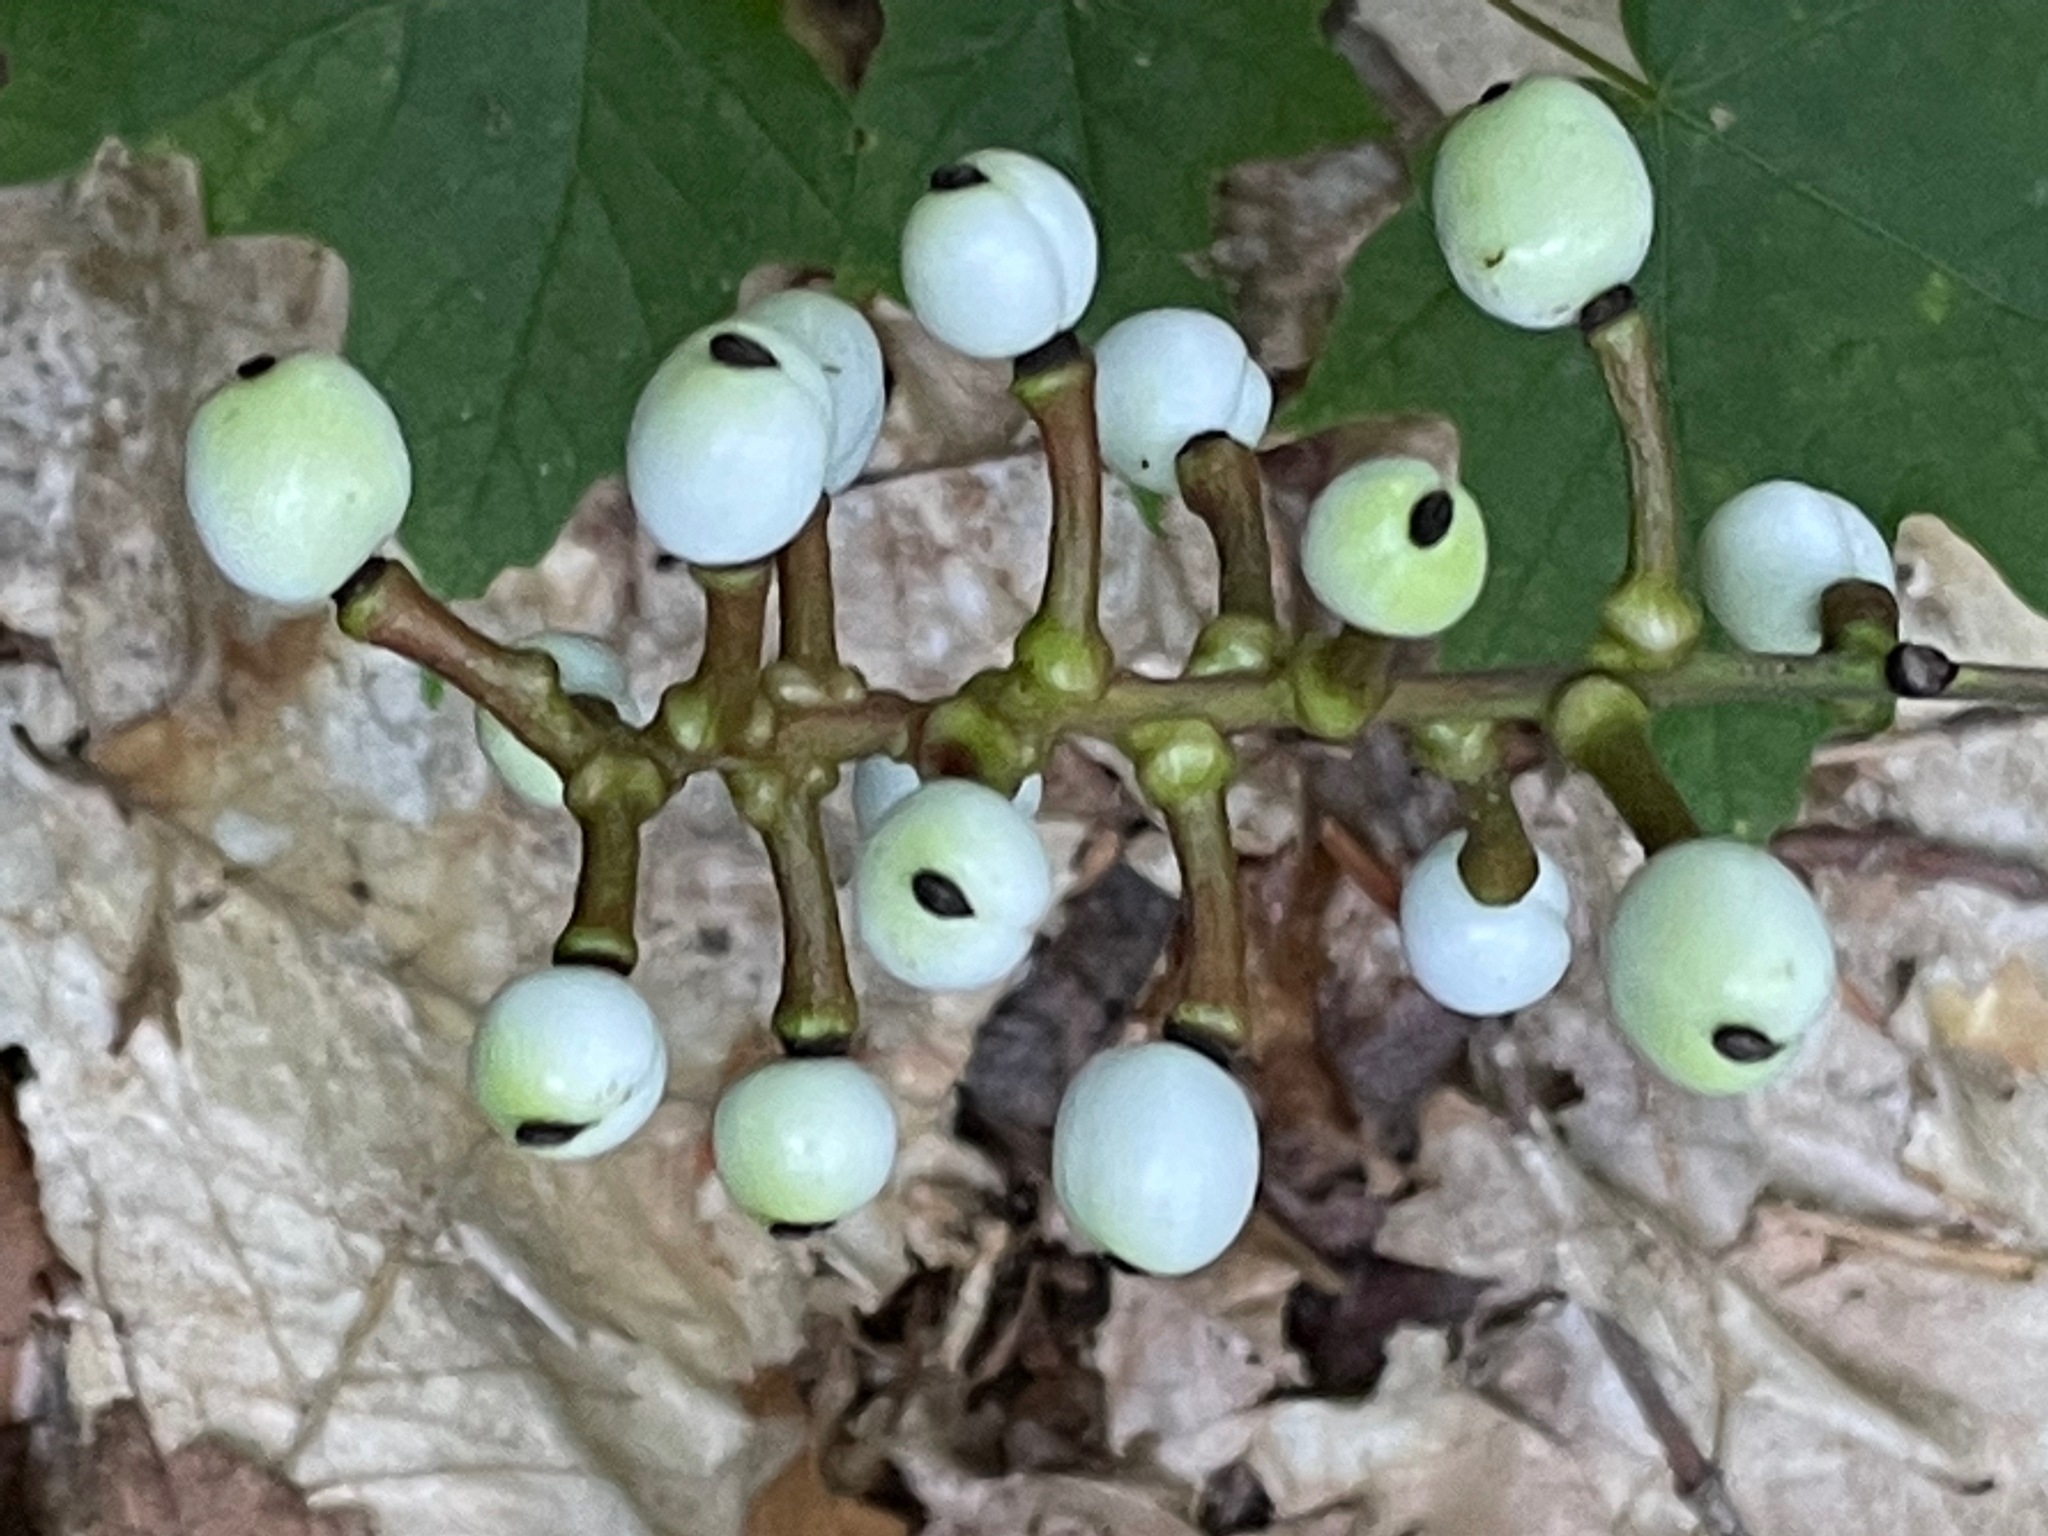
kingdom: Plantae
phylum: Tracheophyta
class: Magnoliopsida
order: Ranunculales
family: Ranunculaceae
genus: Actaea
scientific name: Actaea pachypoda
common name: Doll's-eyes
